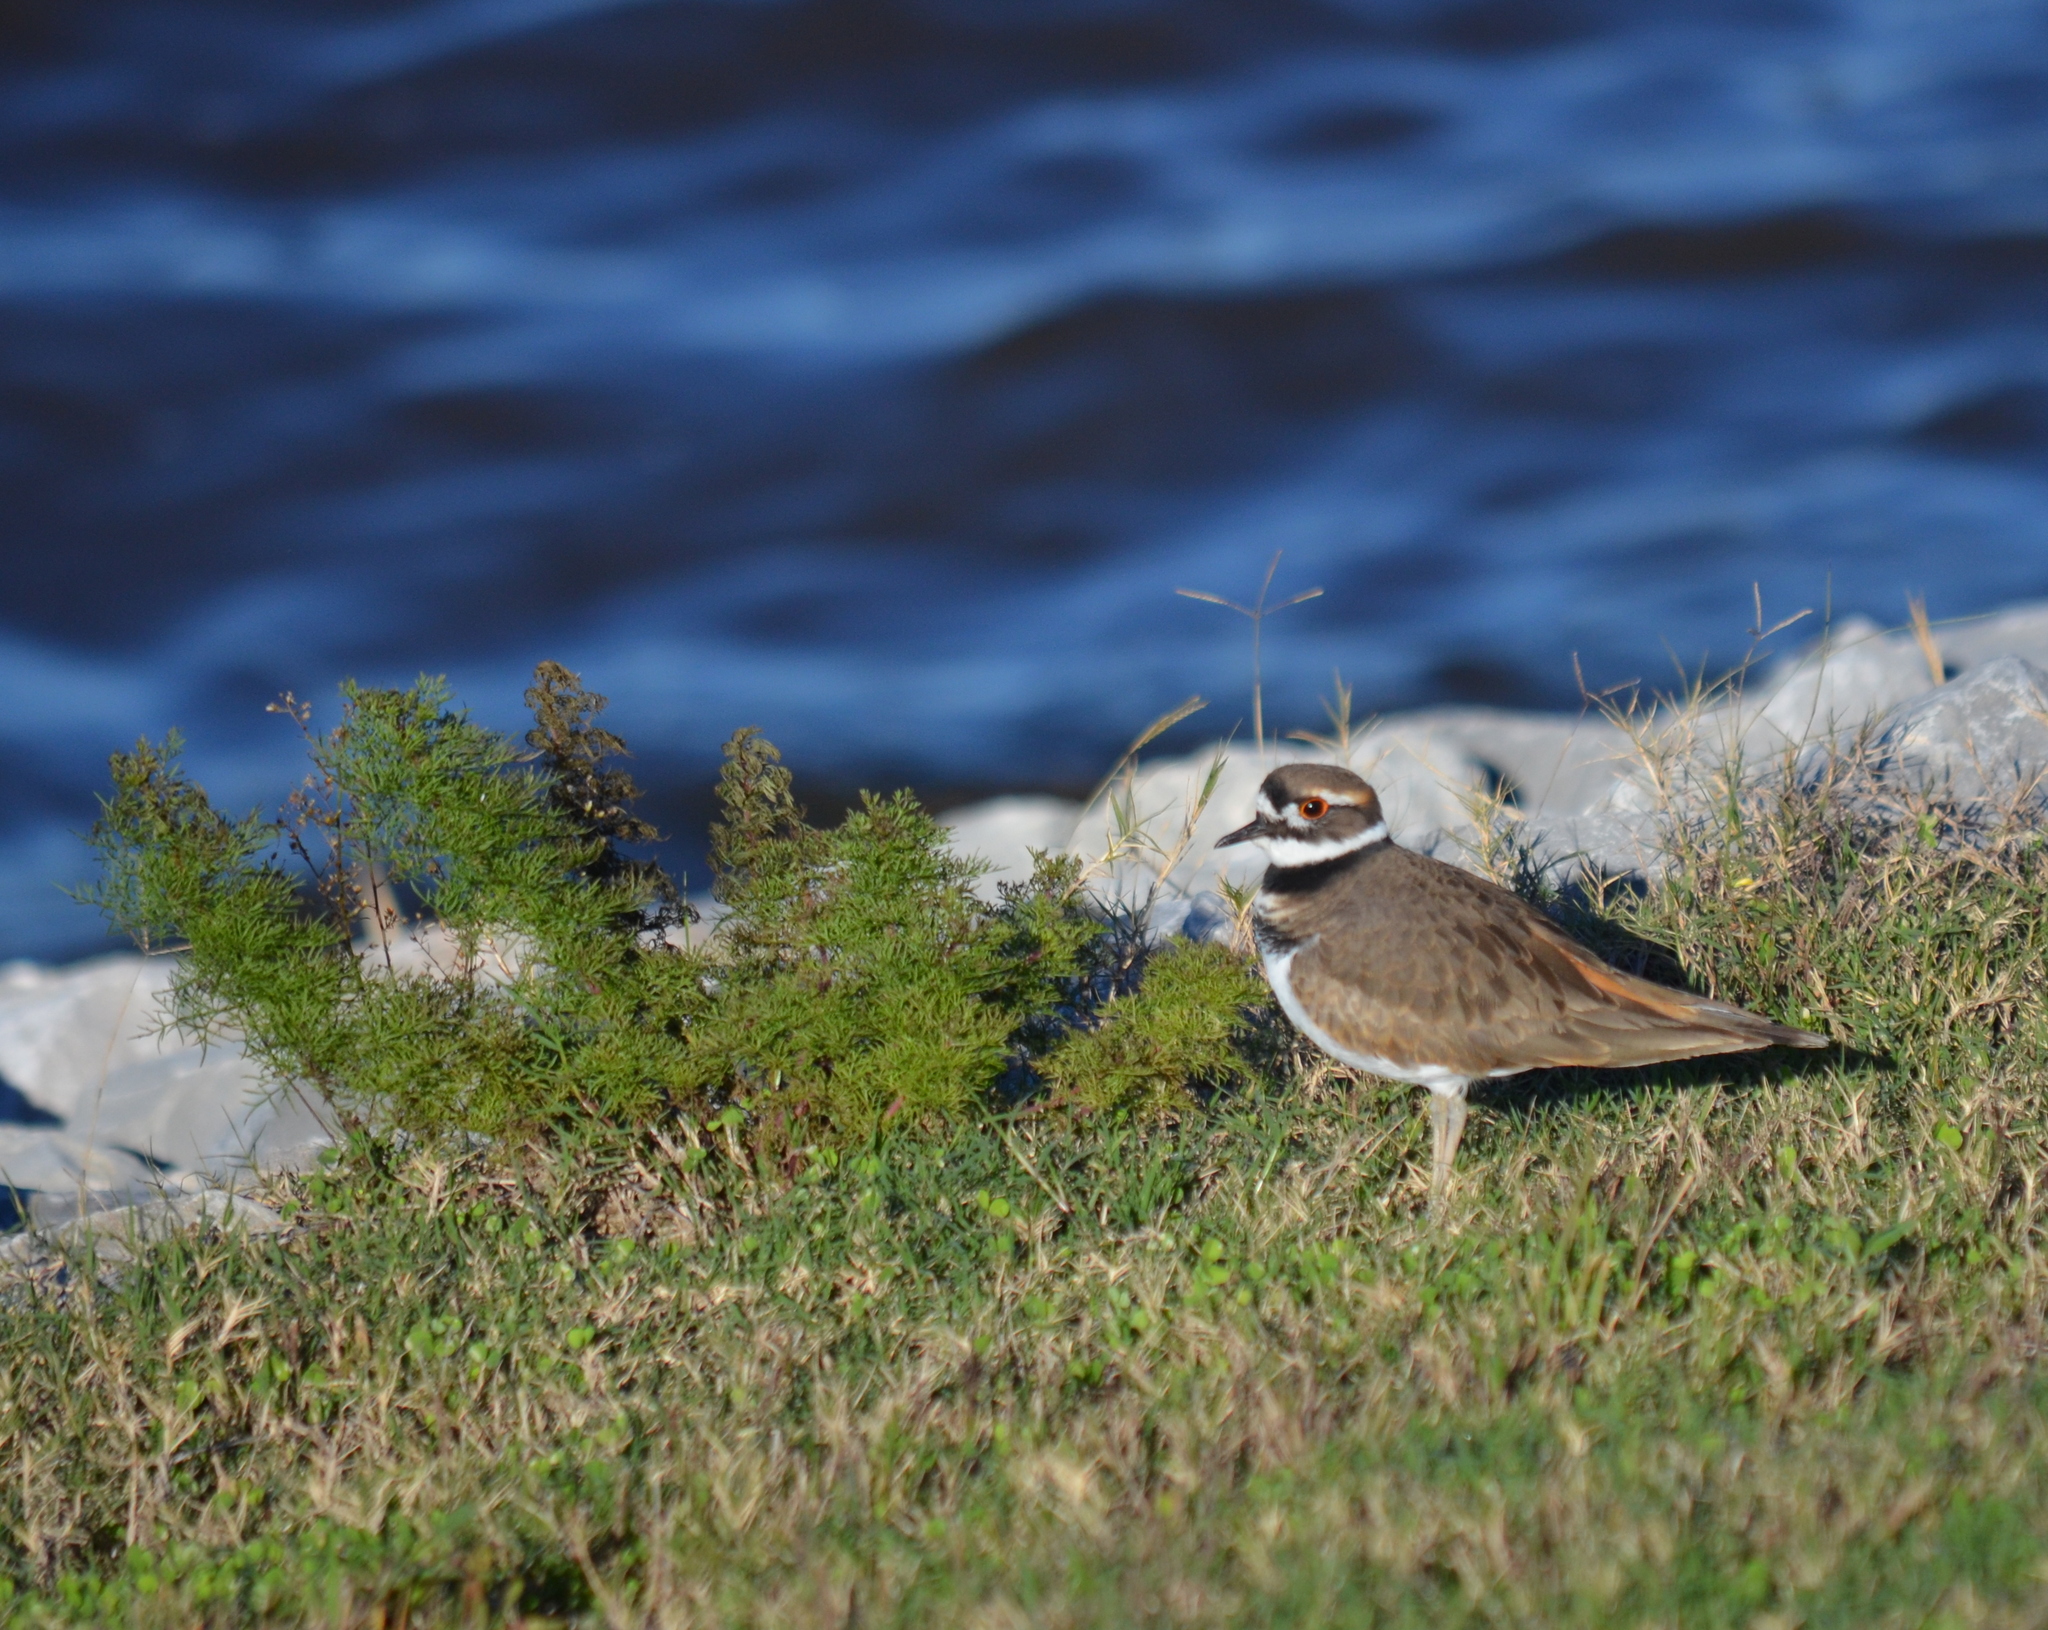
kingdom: Animalia
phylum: Chordata
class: Aves
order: Charadriiformes
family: Charadriidae
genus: Charadrius
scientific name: Charadrius vociferus
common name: Killdeer
